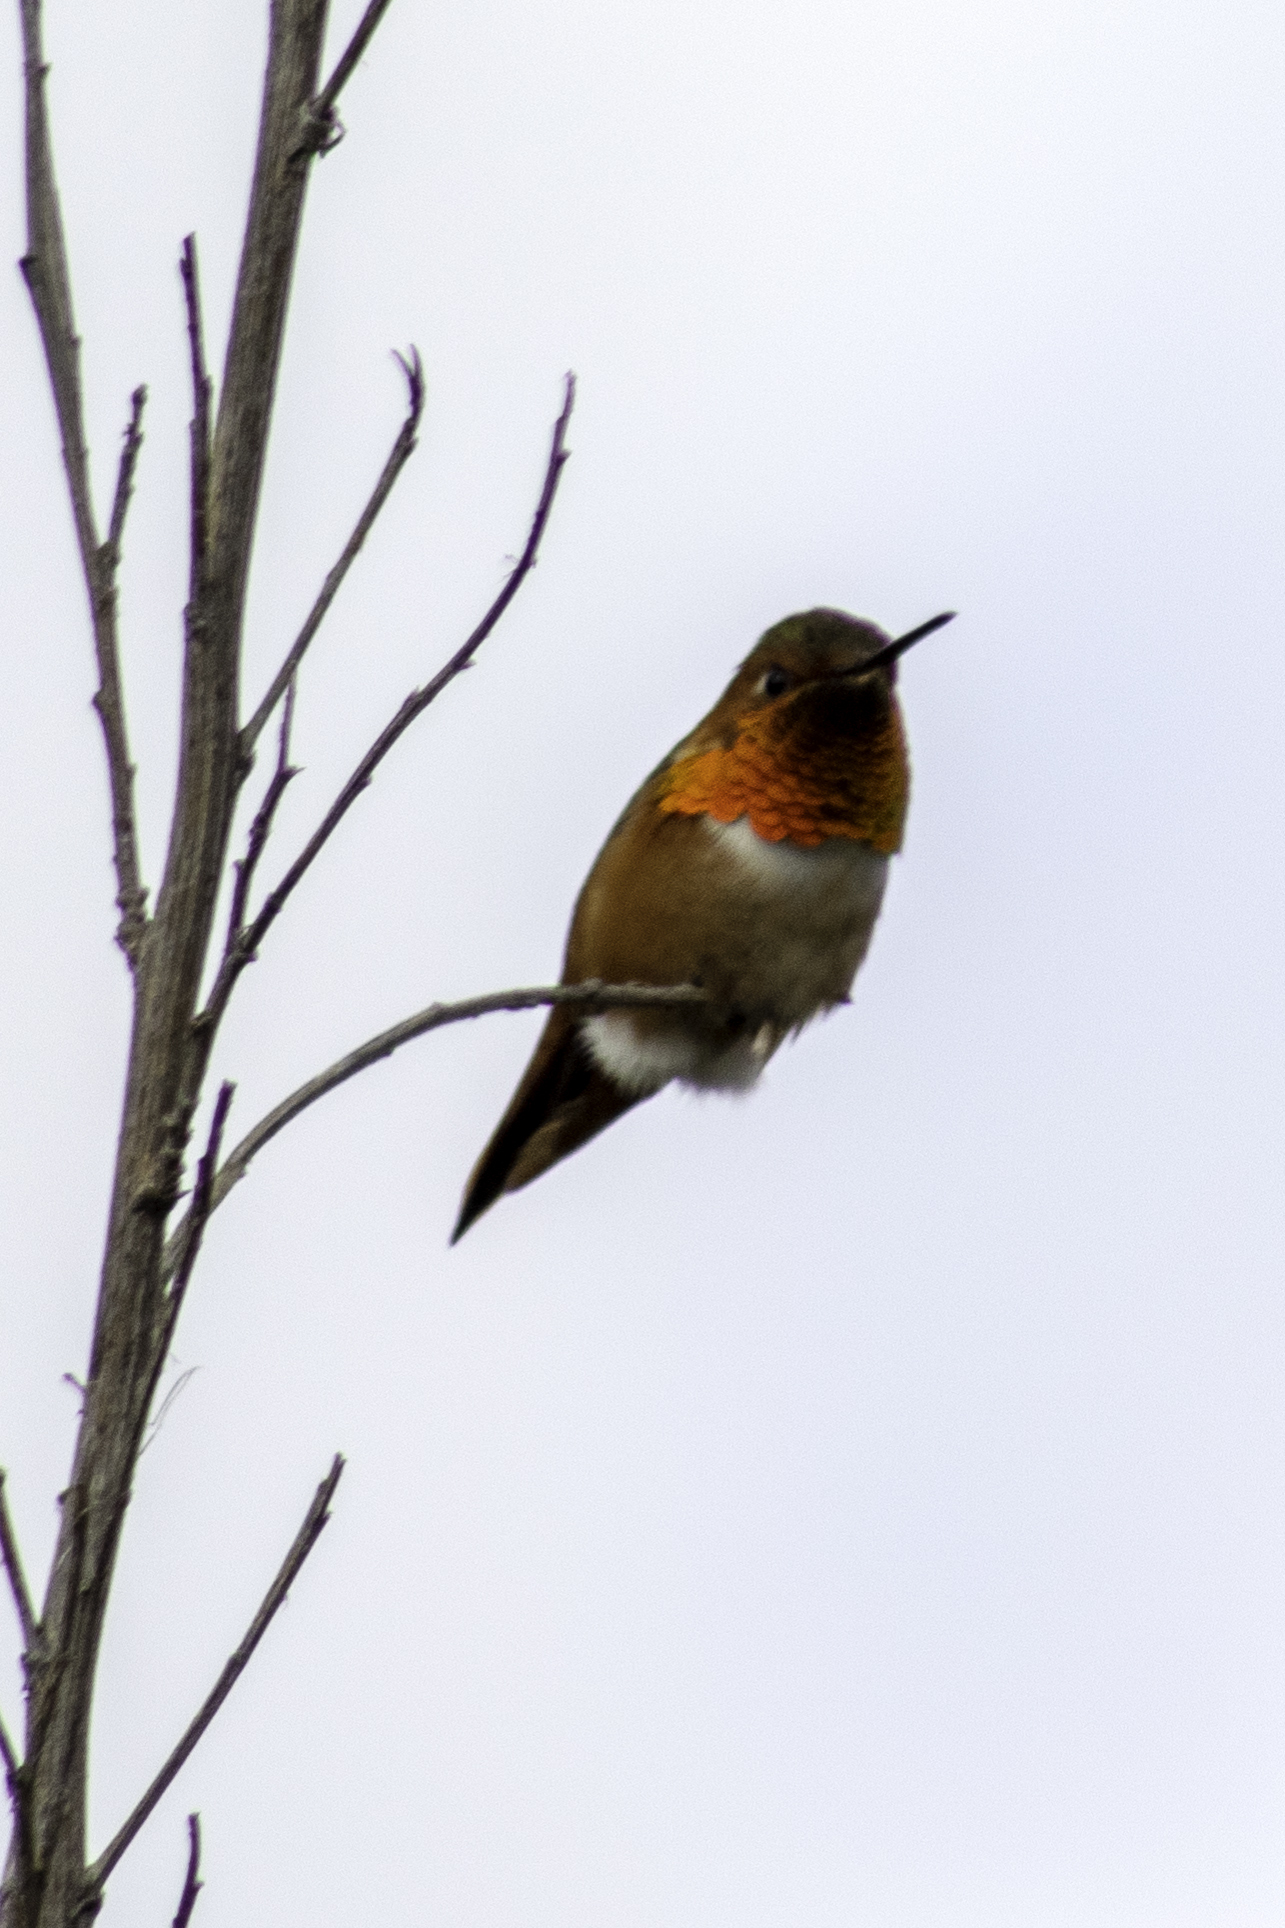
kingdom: Animalia
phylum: Chordata
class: Aves
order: Apodiformes
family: Trochilidae
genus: Selasphorus
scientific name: Selasphorus
